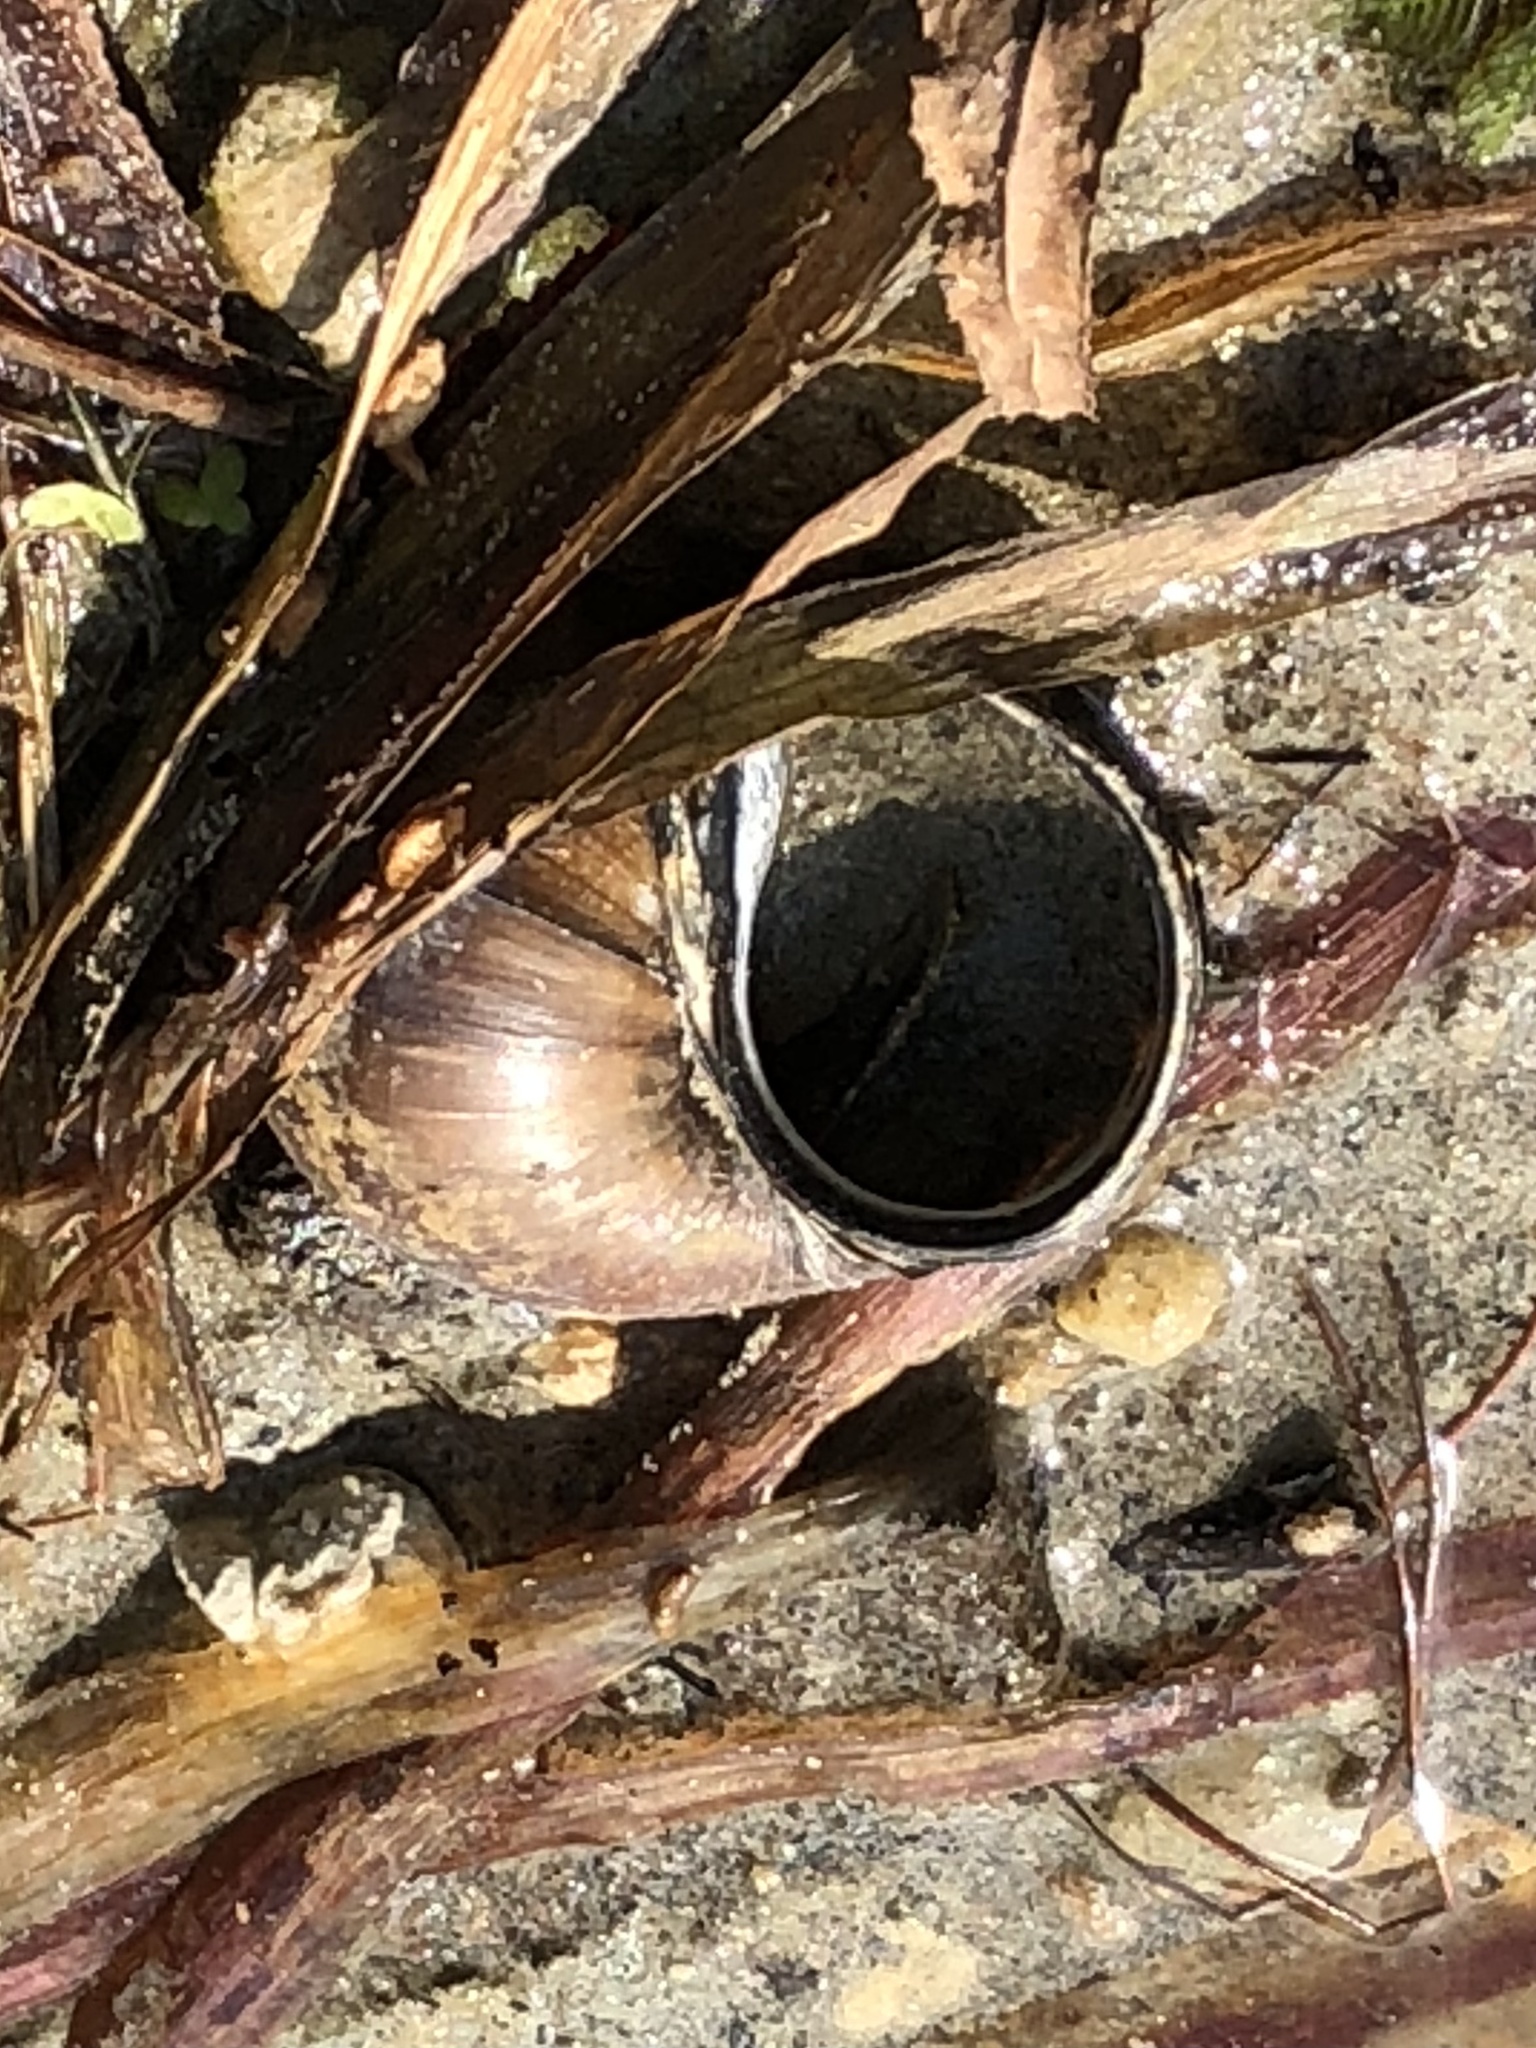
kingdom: Animalia
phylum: Mollusca
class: Gastropoda
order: Architaenioglossa
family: Viviparidae
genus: Cipangopaludina
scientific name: Cipangopaludina chinensis
